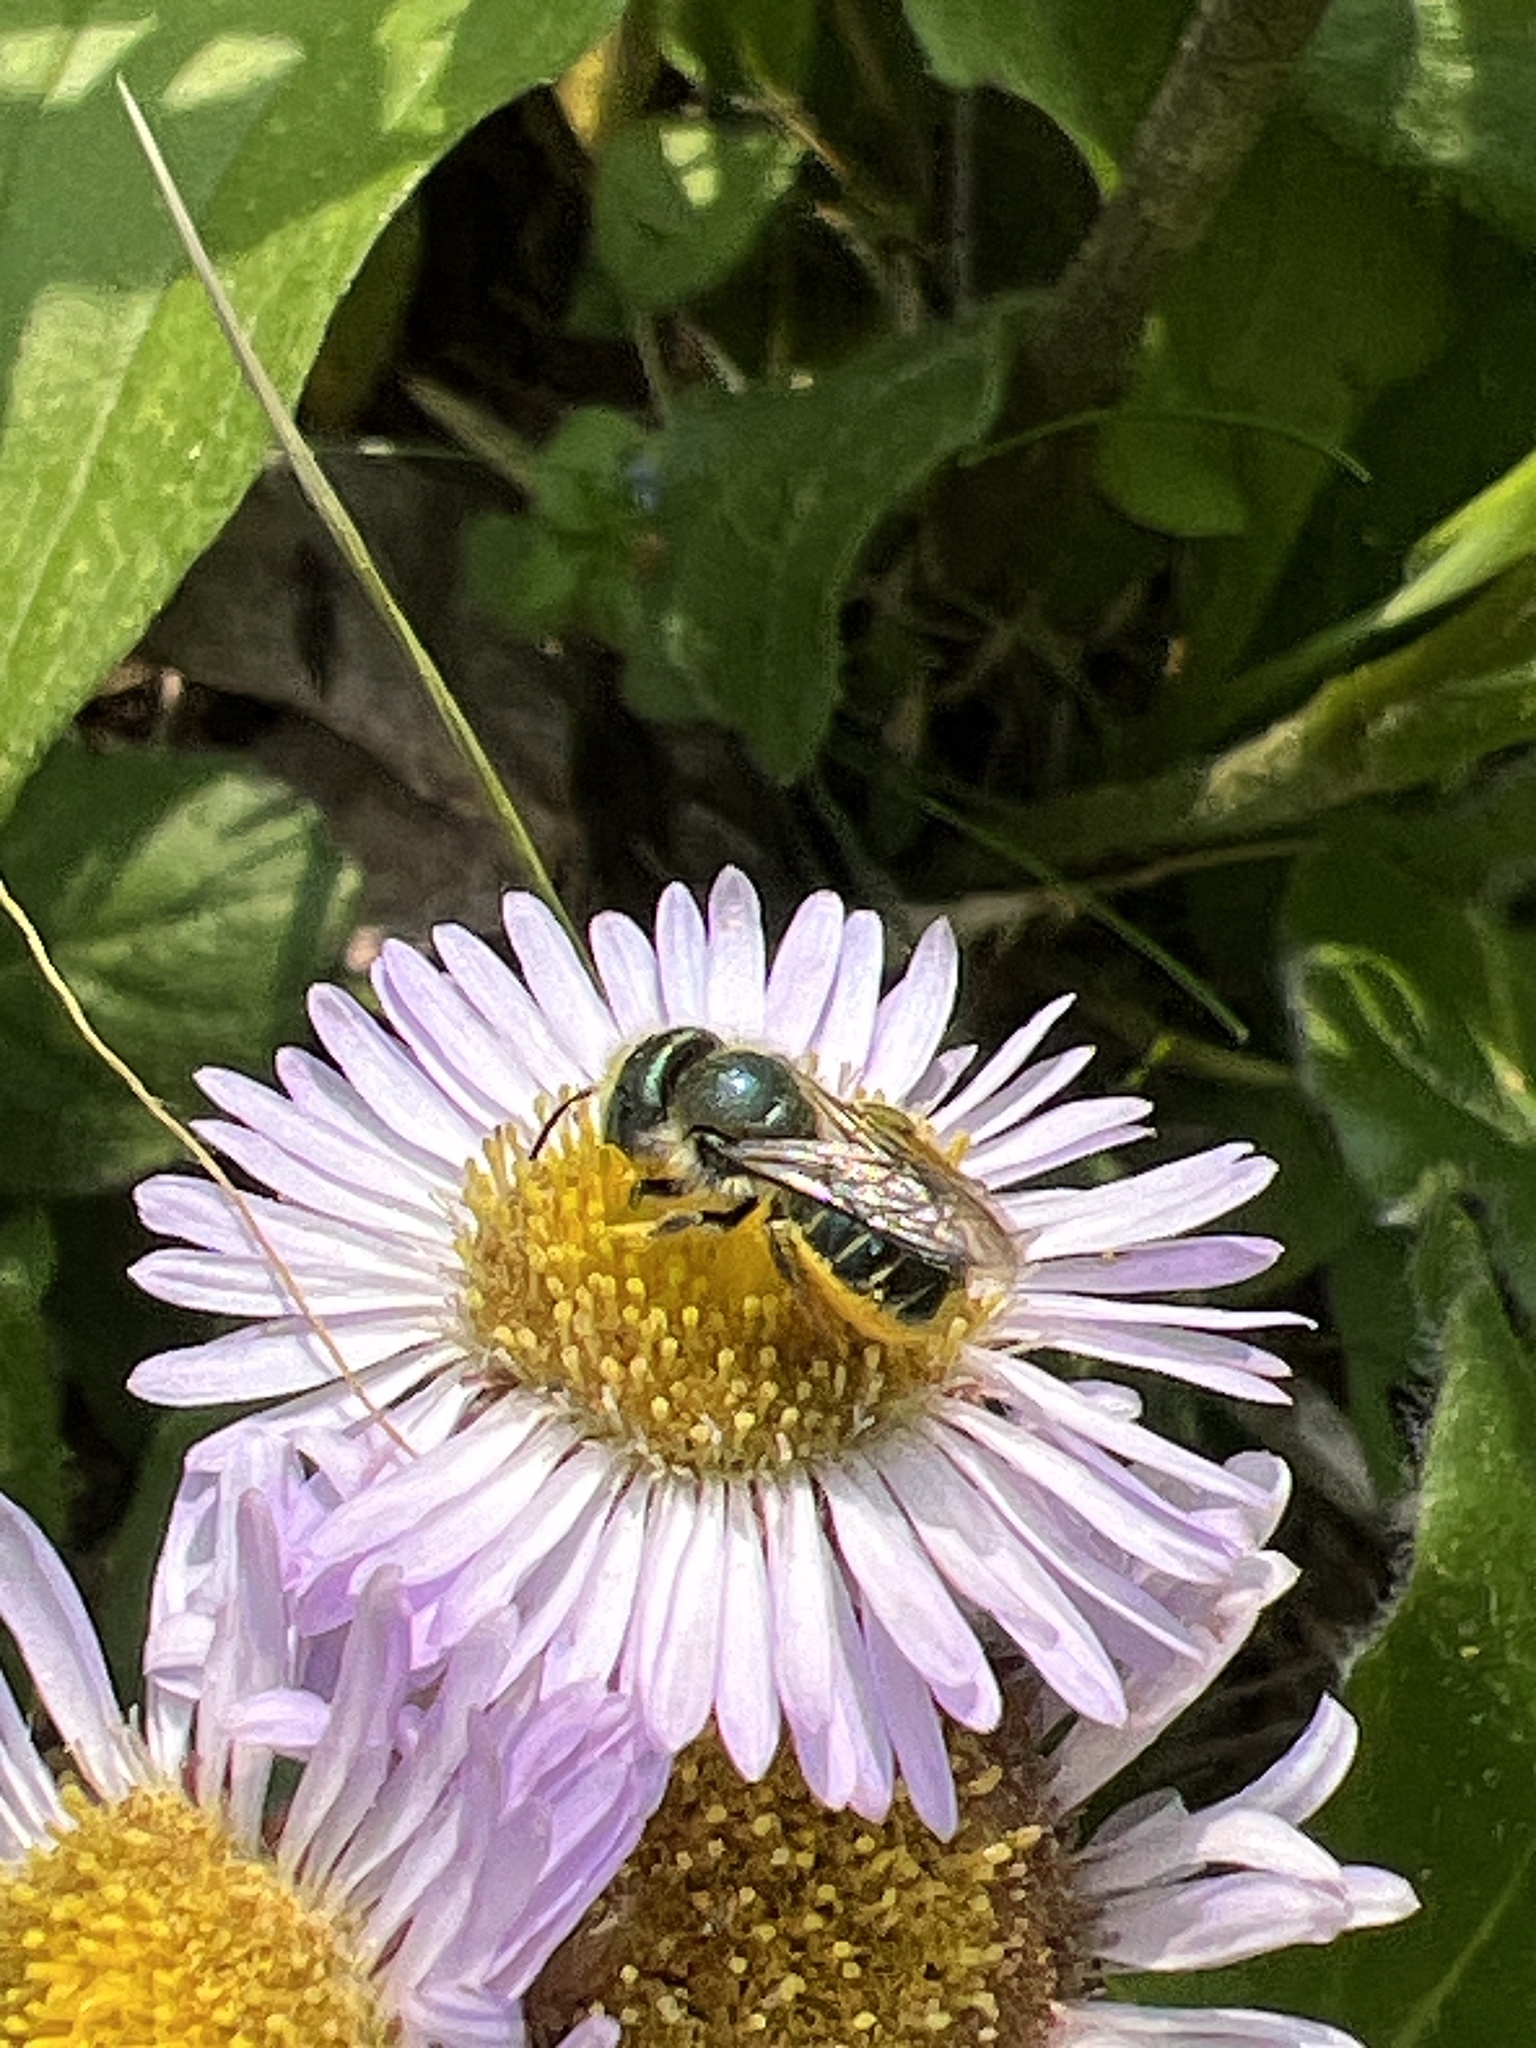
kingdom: Animalia
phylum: Arthropoda
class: Insecta
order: Hymenoptera
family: Megachilidae
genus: Osmia
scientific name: Osmia georgica
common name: Georgia mason
